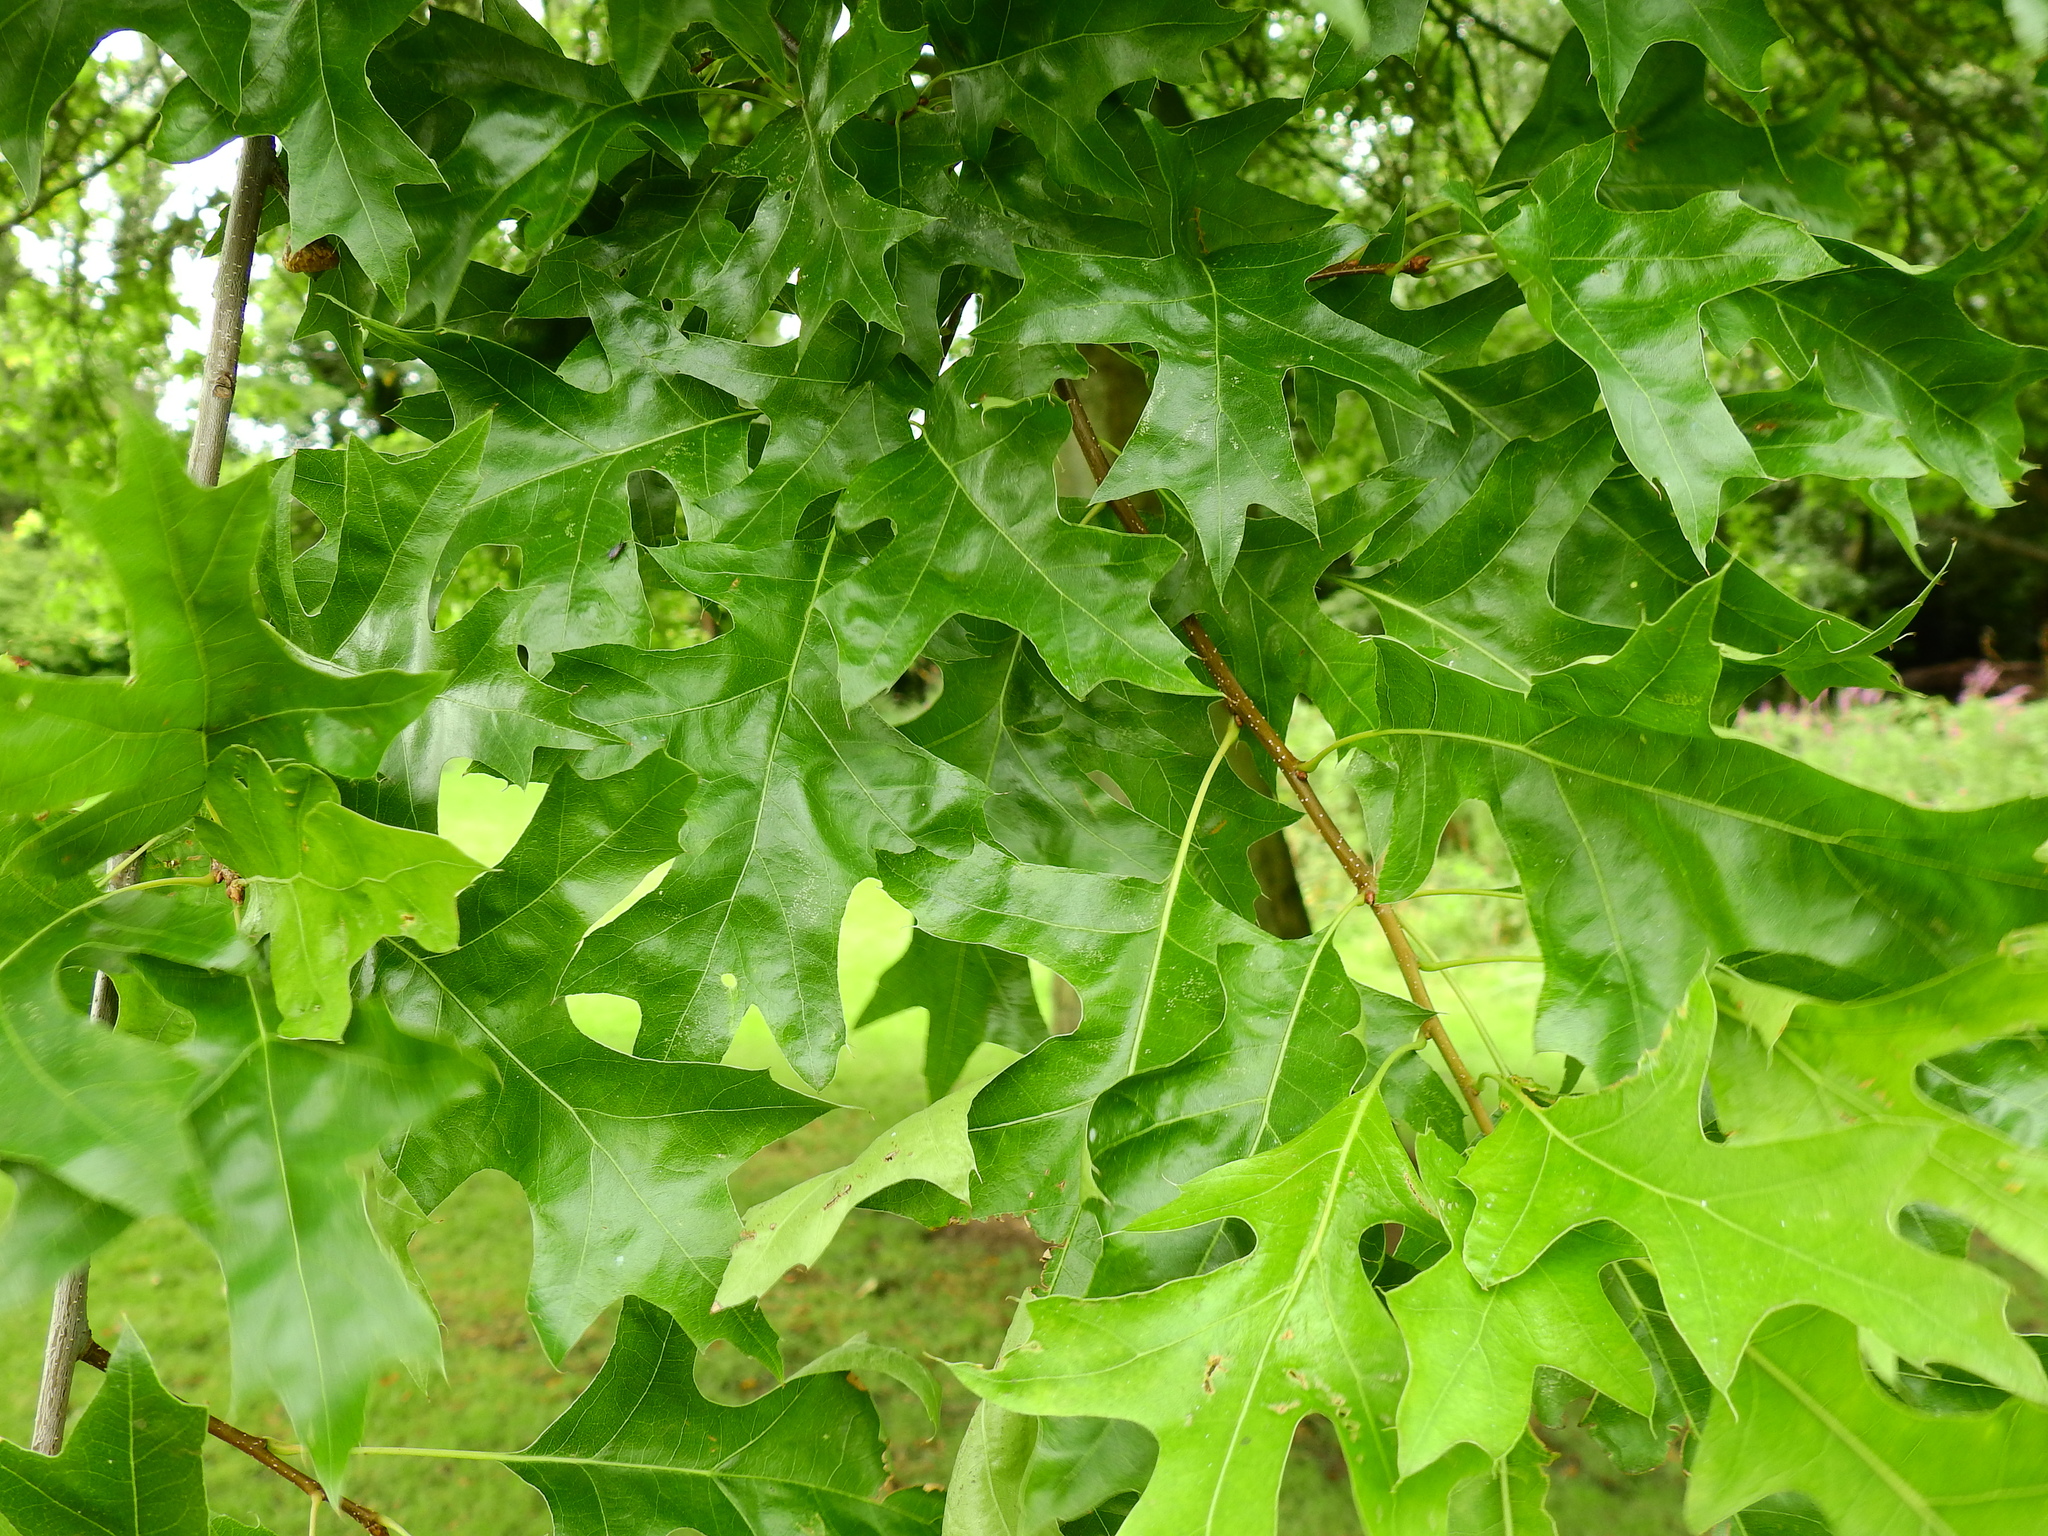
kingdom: Plantae
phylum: Tracheophyta
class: Magnoliopsida
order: Fagales
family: Fagaceae
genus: Quercus
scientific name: Quercus palustris
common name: Pin oak
